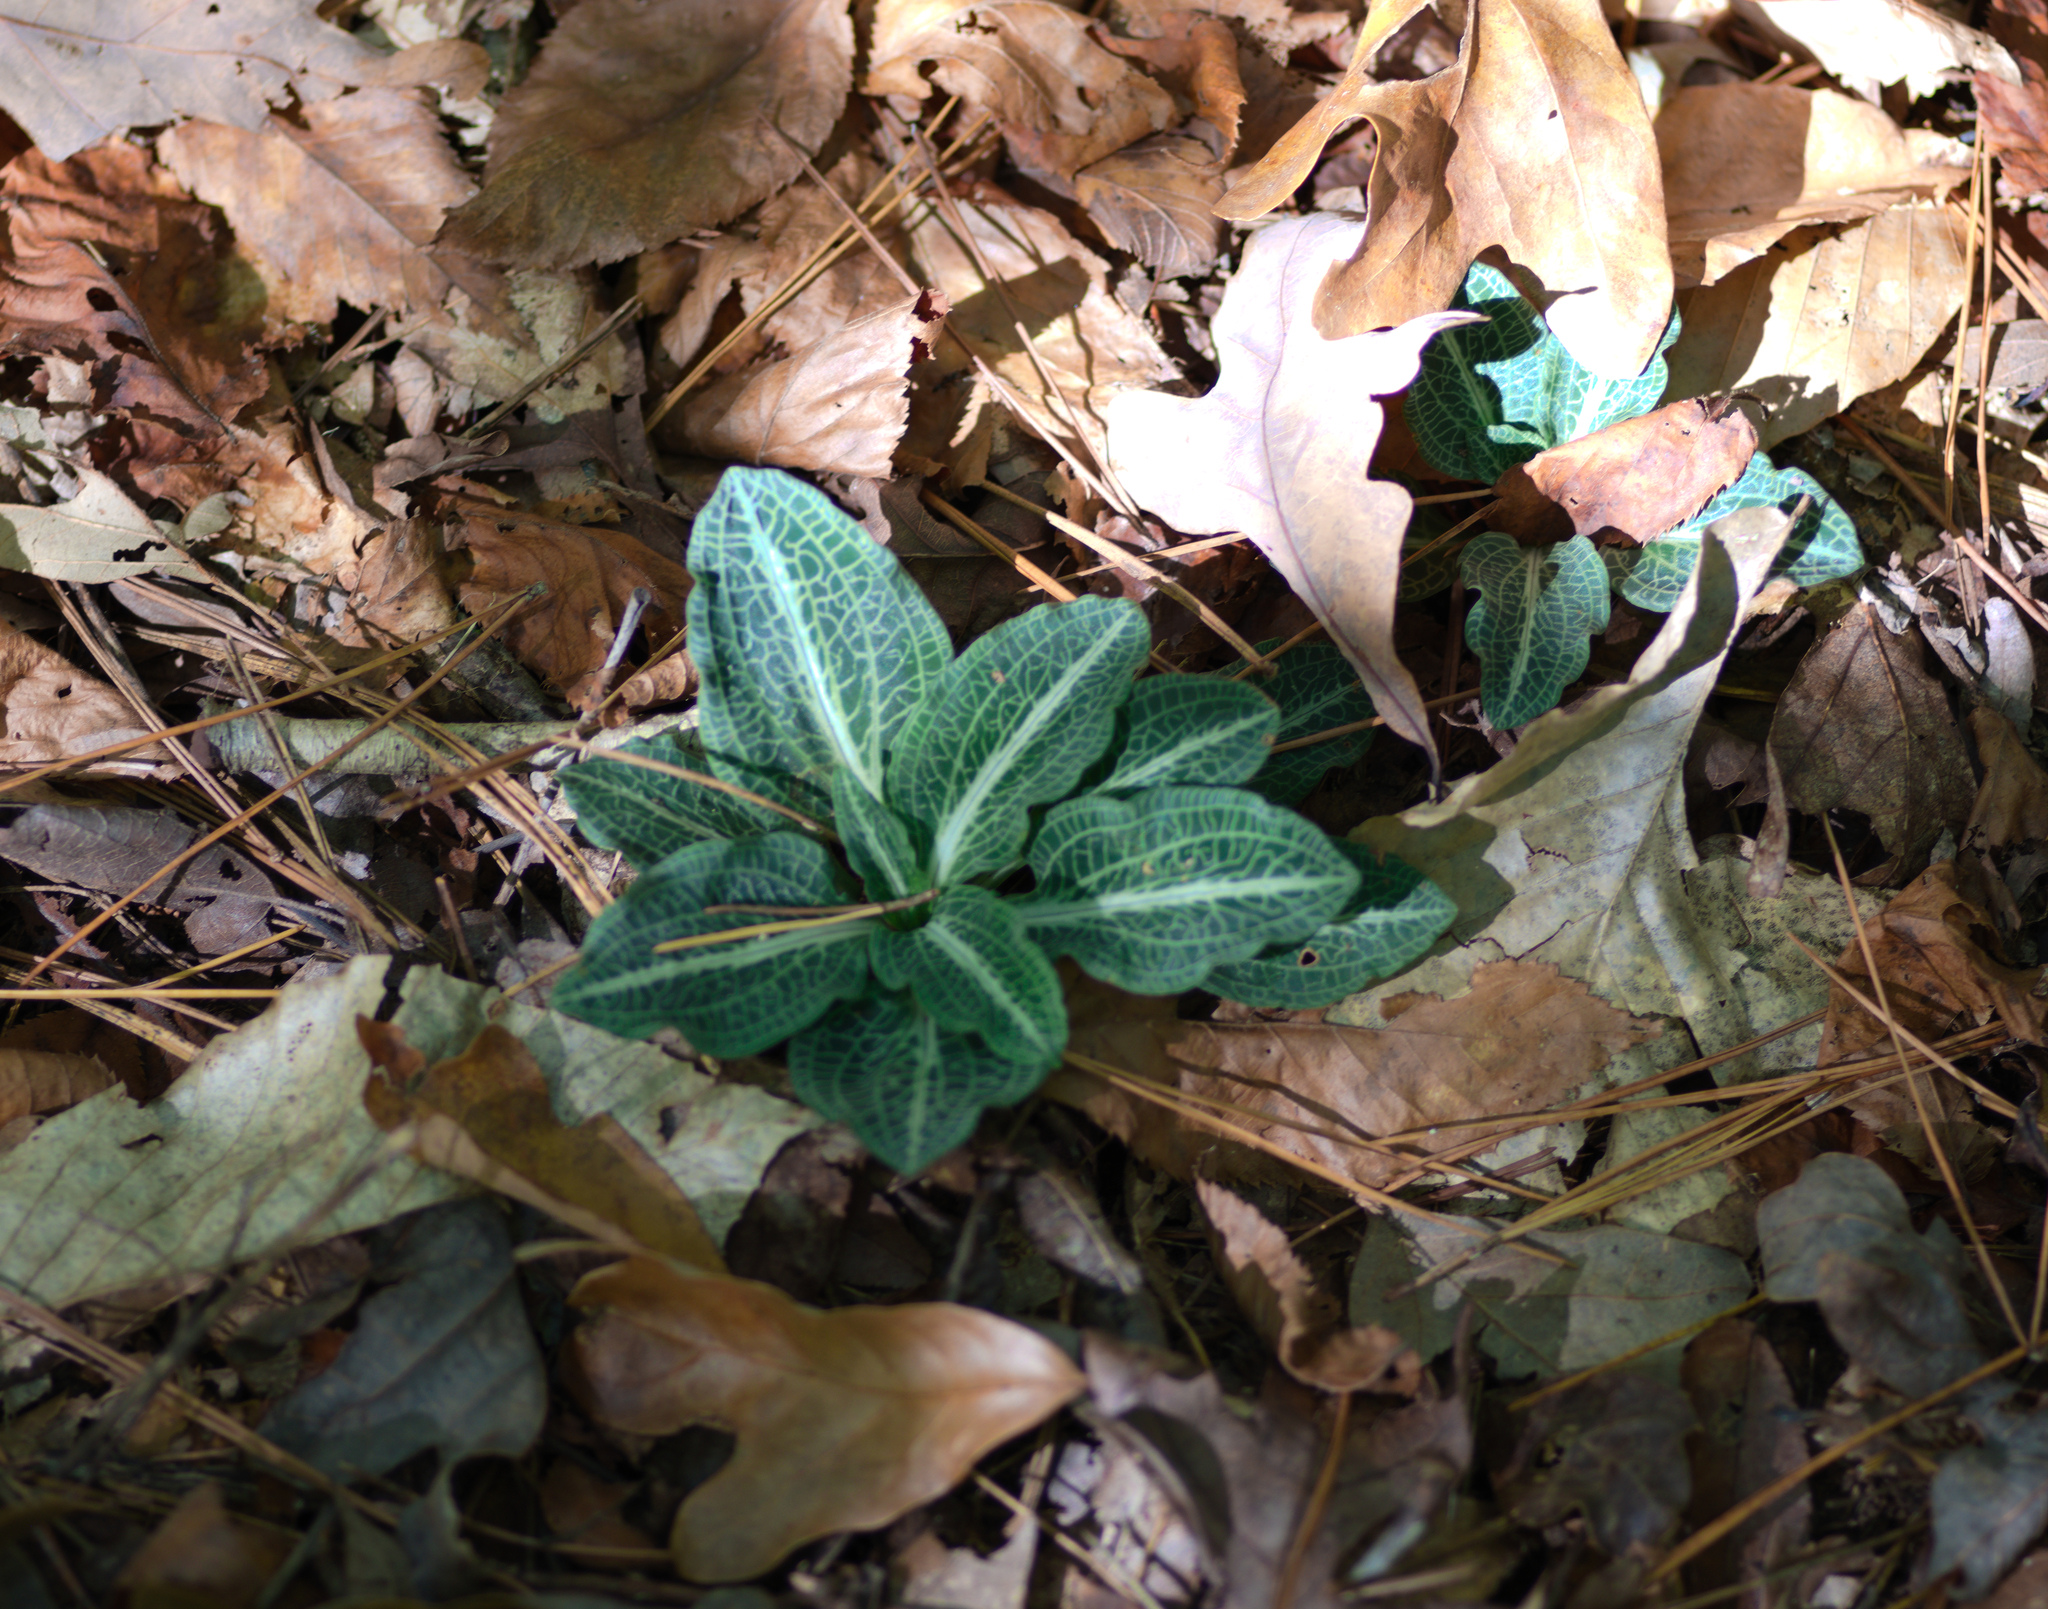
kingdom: Plantae
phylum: Tracheophyta
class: Liliopsida
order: Asparagales
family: Orchidaceae
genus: Goodyera
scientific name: Goodyera pubescens
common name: Downy rattlesnake-plantain
